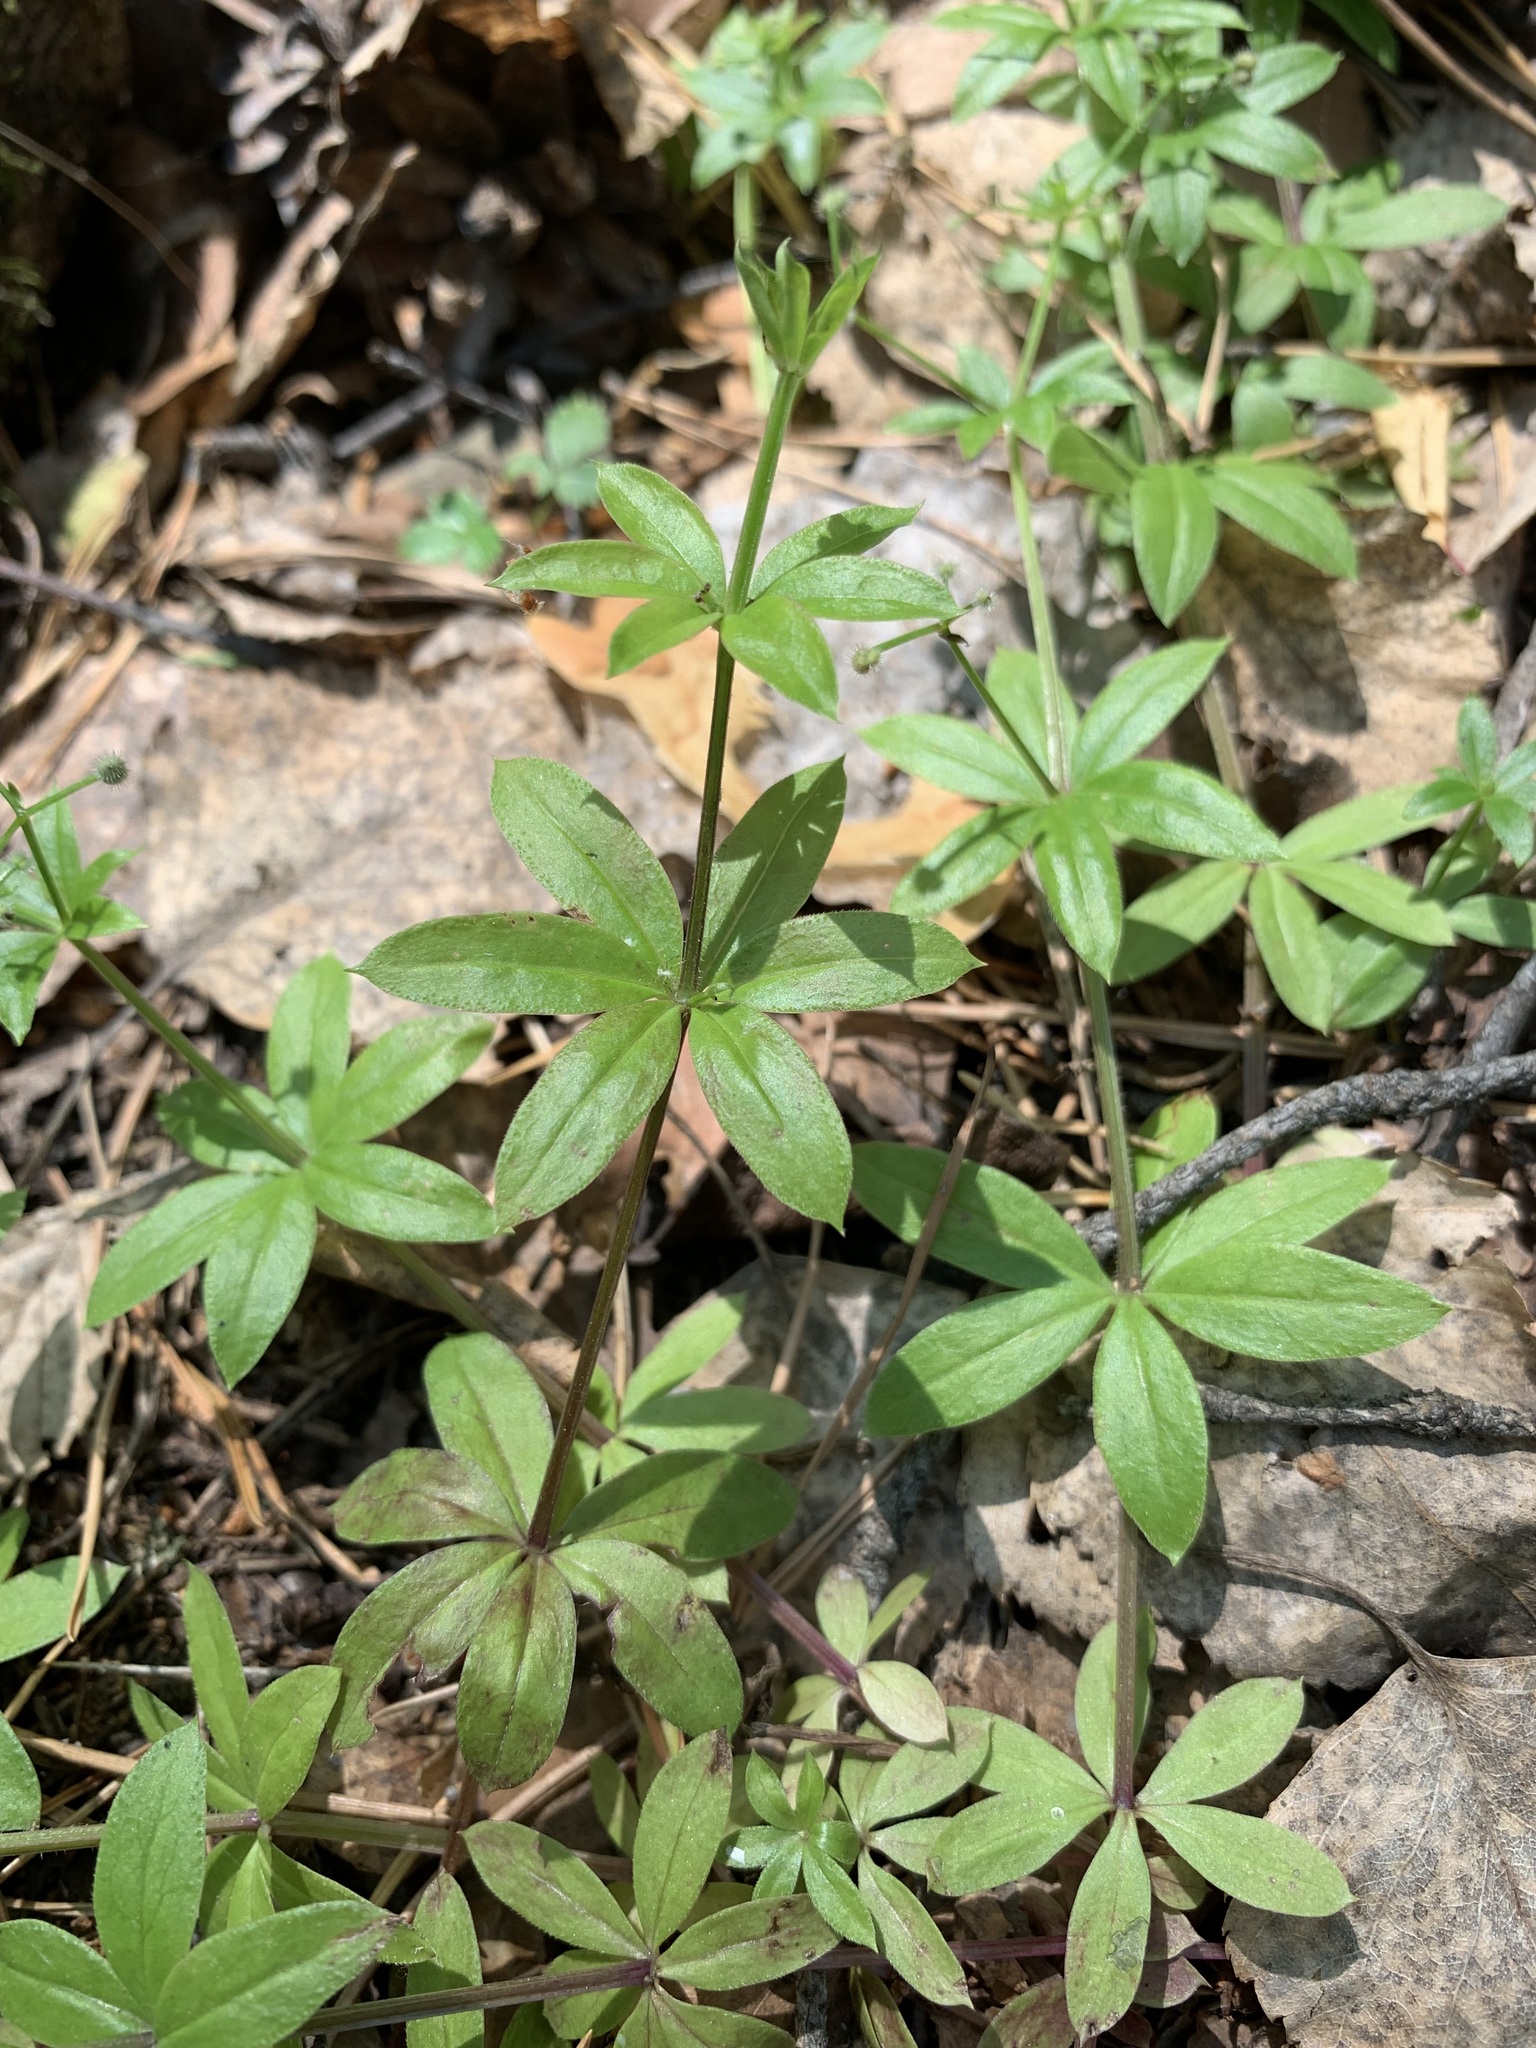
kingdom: Plantae
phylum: Tracheophyta
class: Magnoliopsida
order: Gentianales
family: Rubiaceae
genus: Galium
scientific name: Galium triflorum
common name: Fragrant bedstraw
